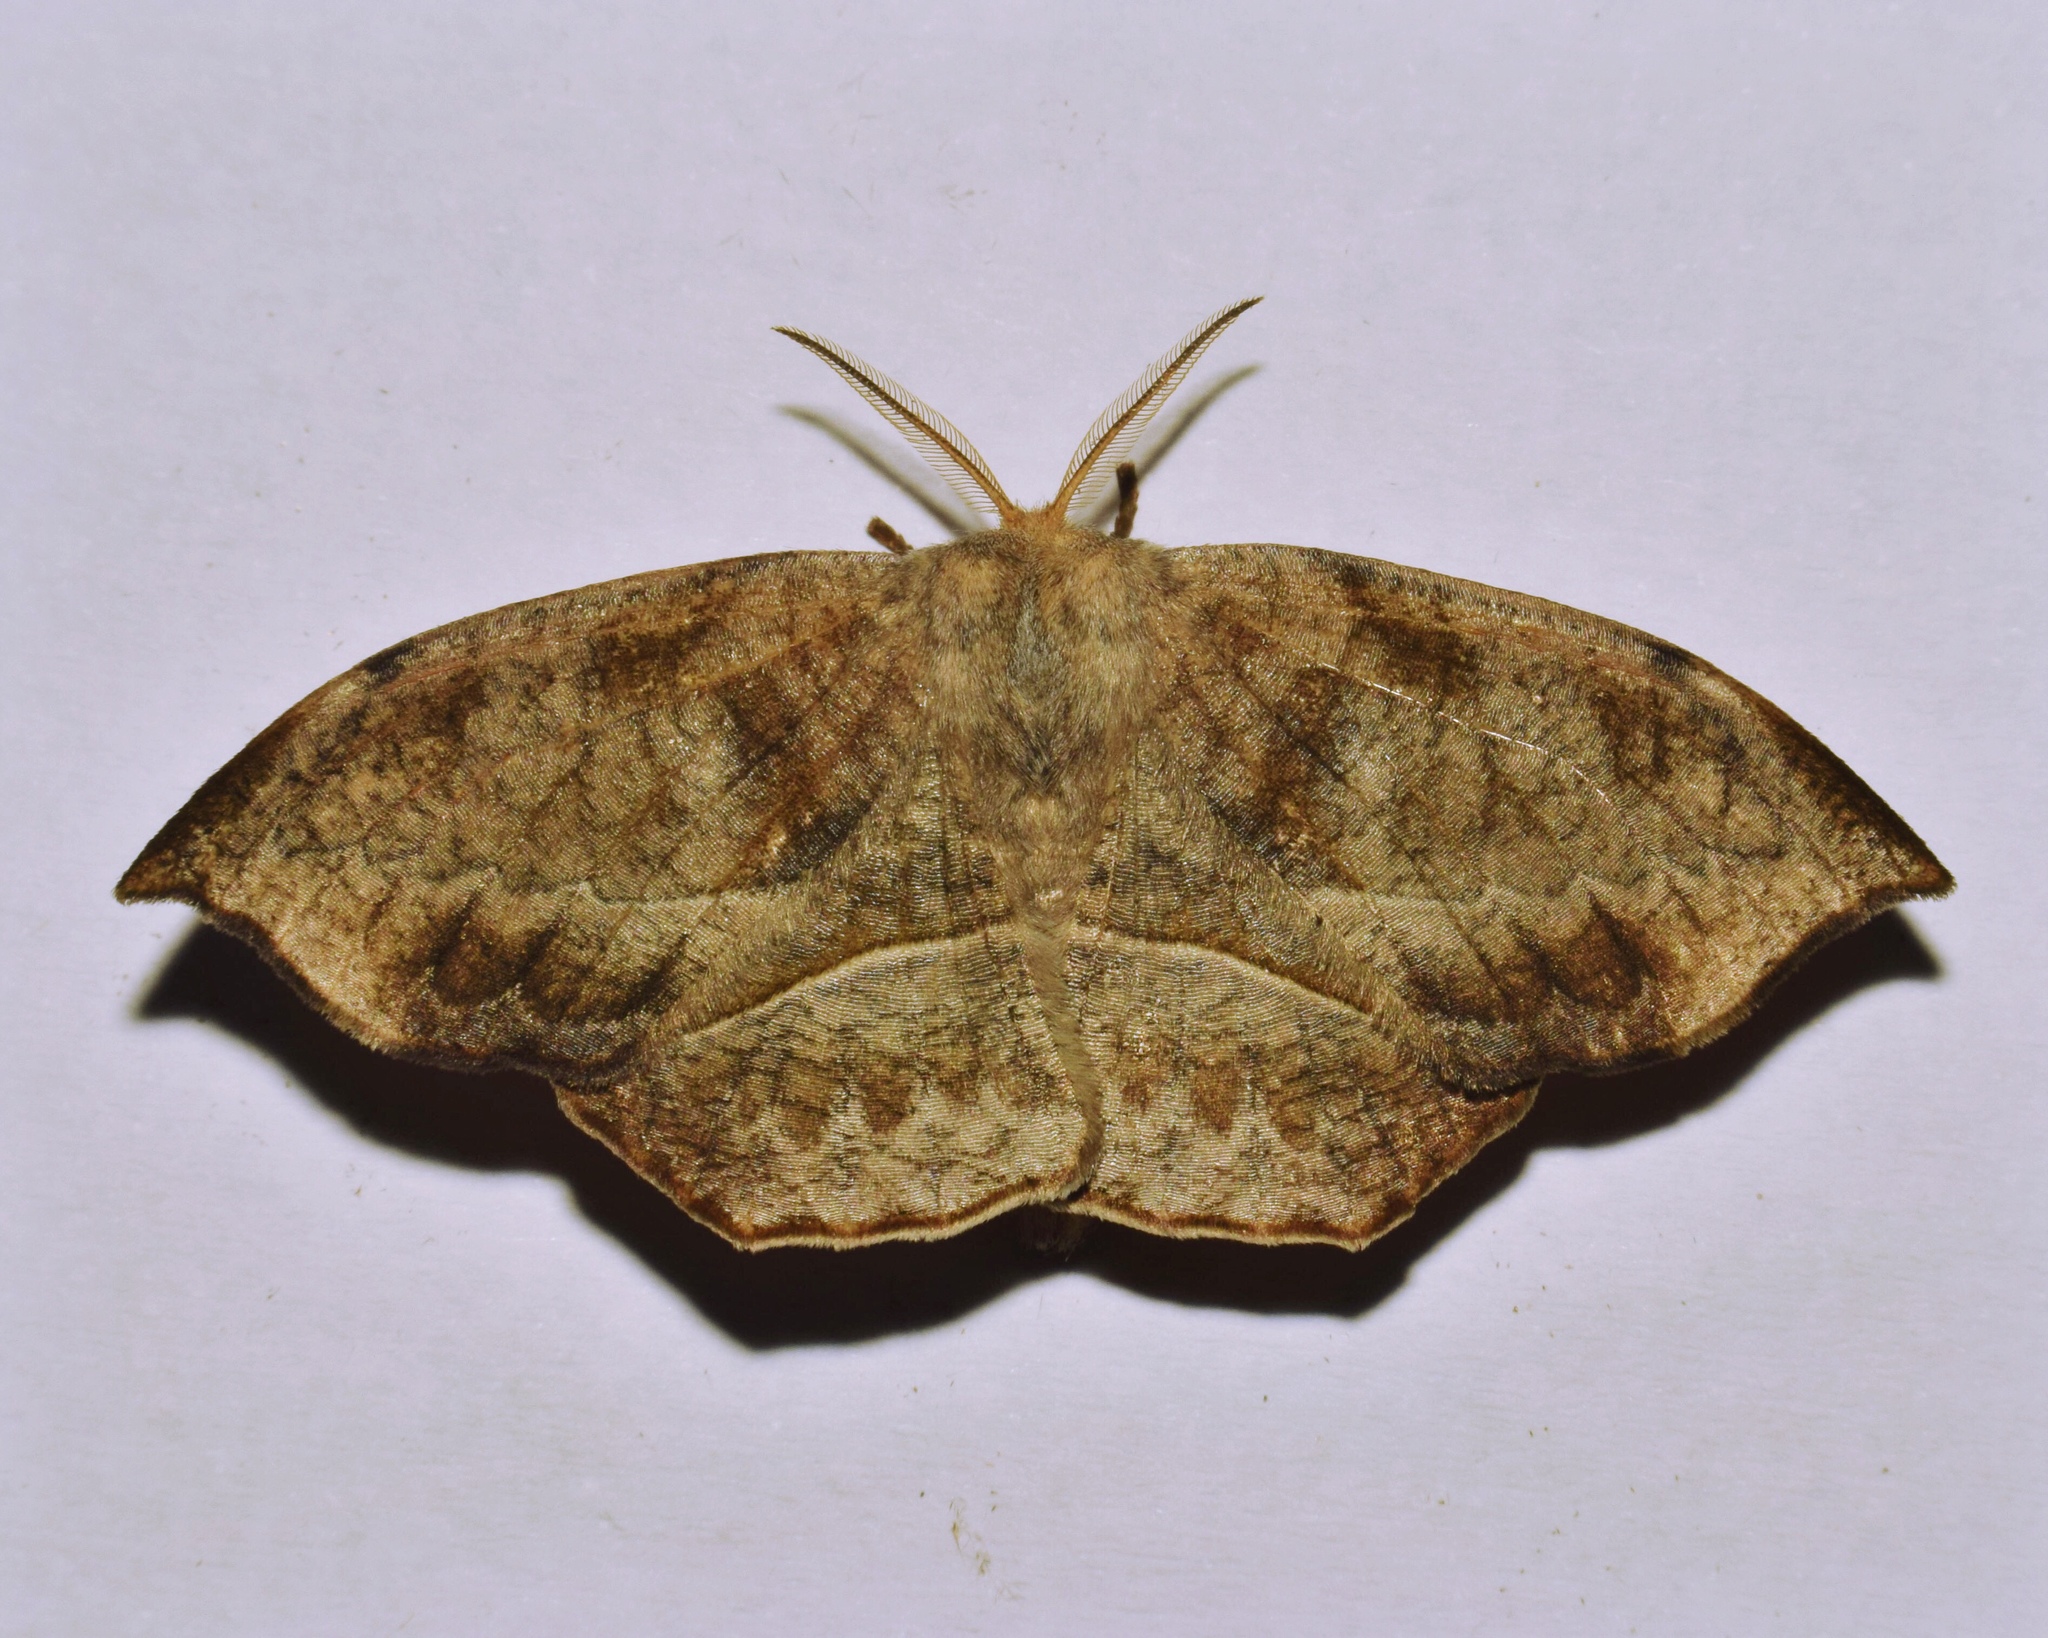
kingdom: Animalia
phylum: Arthropoda
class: Insecta
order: Lepidoptera
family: Drepanidae
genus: Negera
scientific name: Negera natalensis
